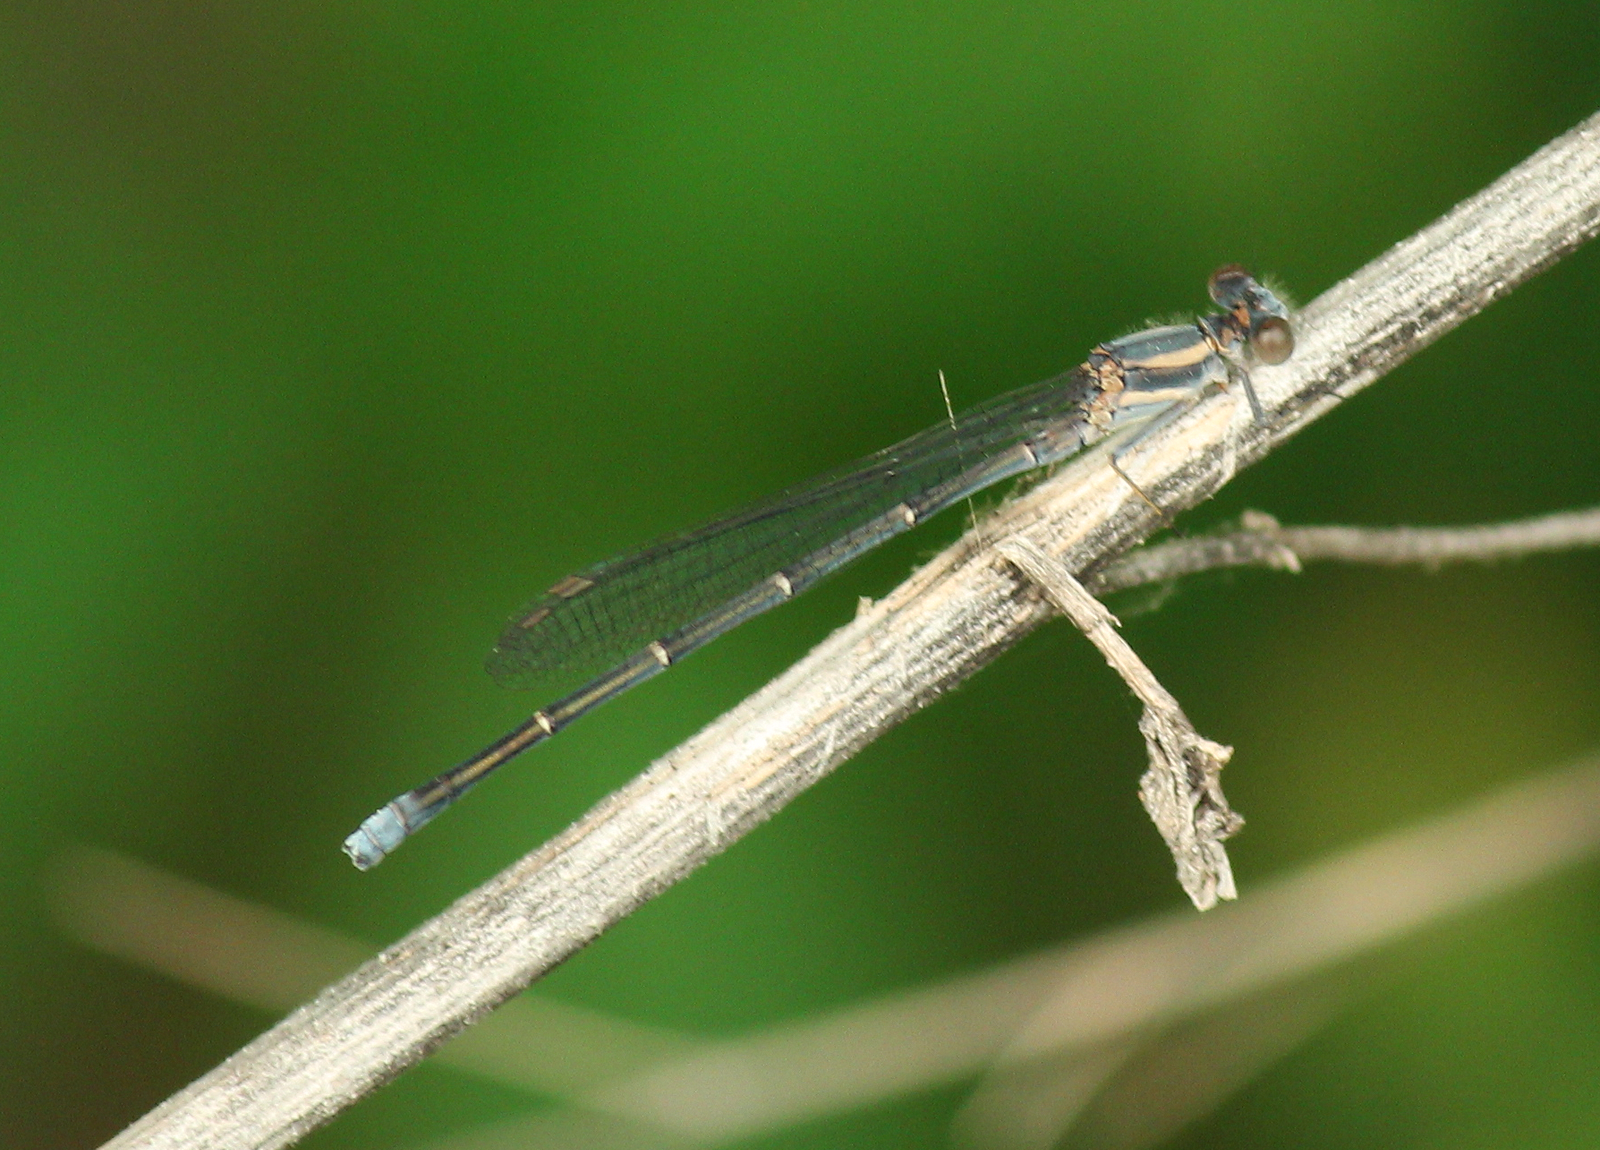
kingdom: Animalia
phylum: Arthropoda
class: Insecta
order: Odonata
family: Coenagrionidae
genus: Argia
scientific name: Argia moesta
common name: Powdered dancer
